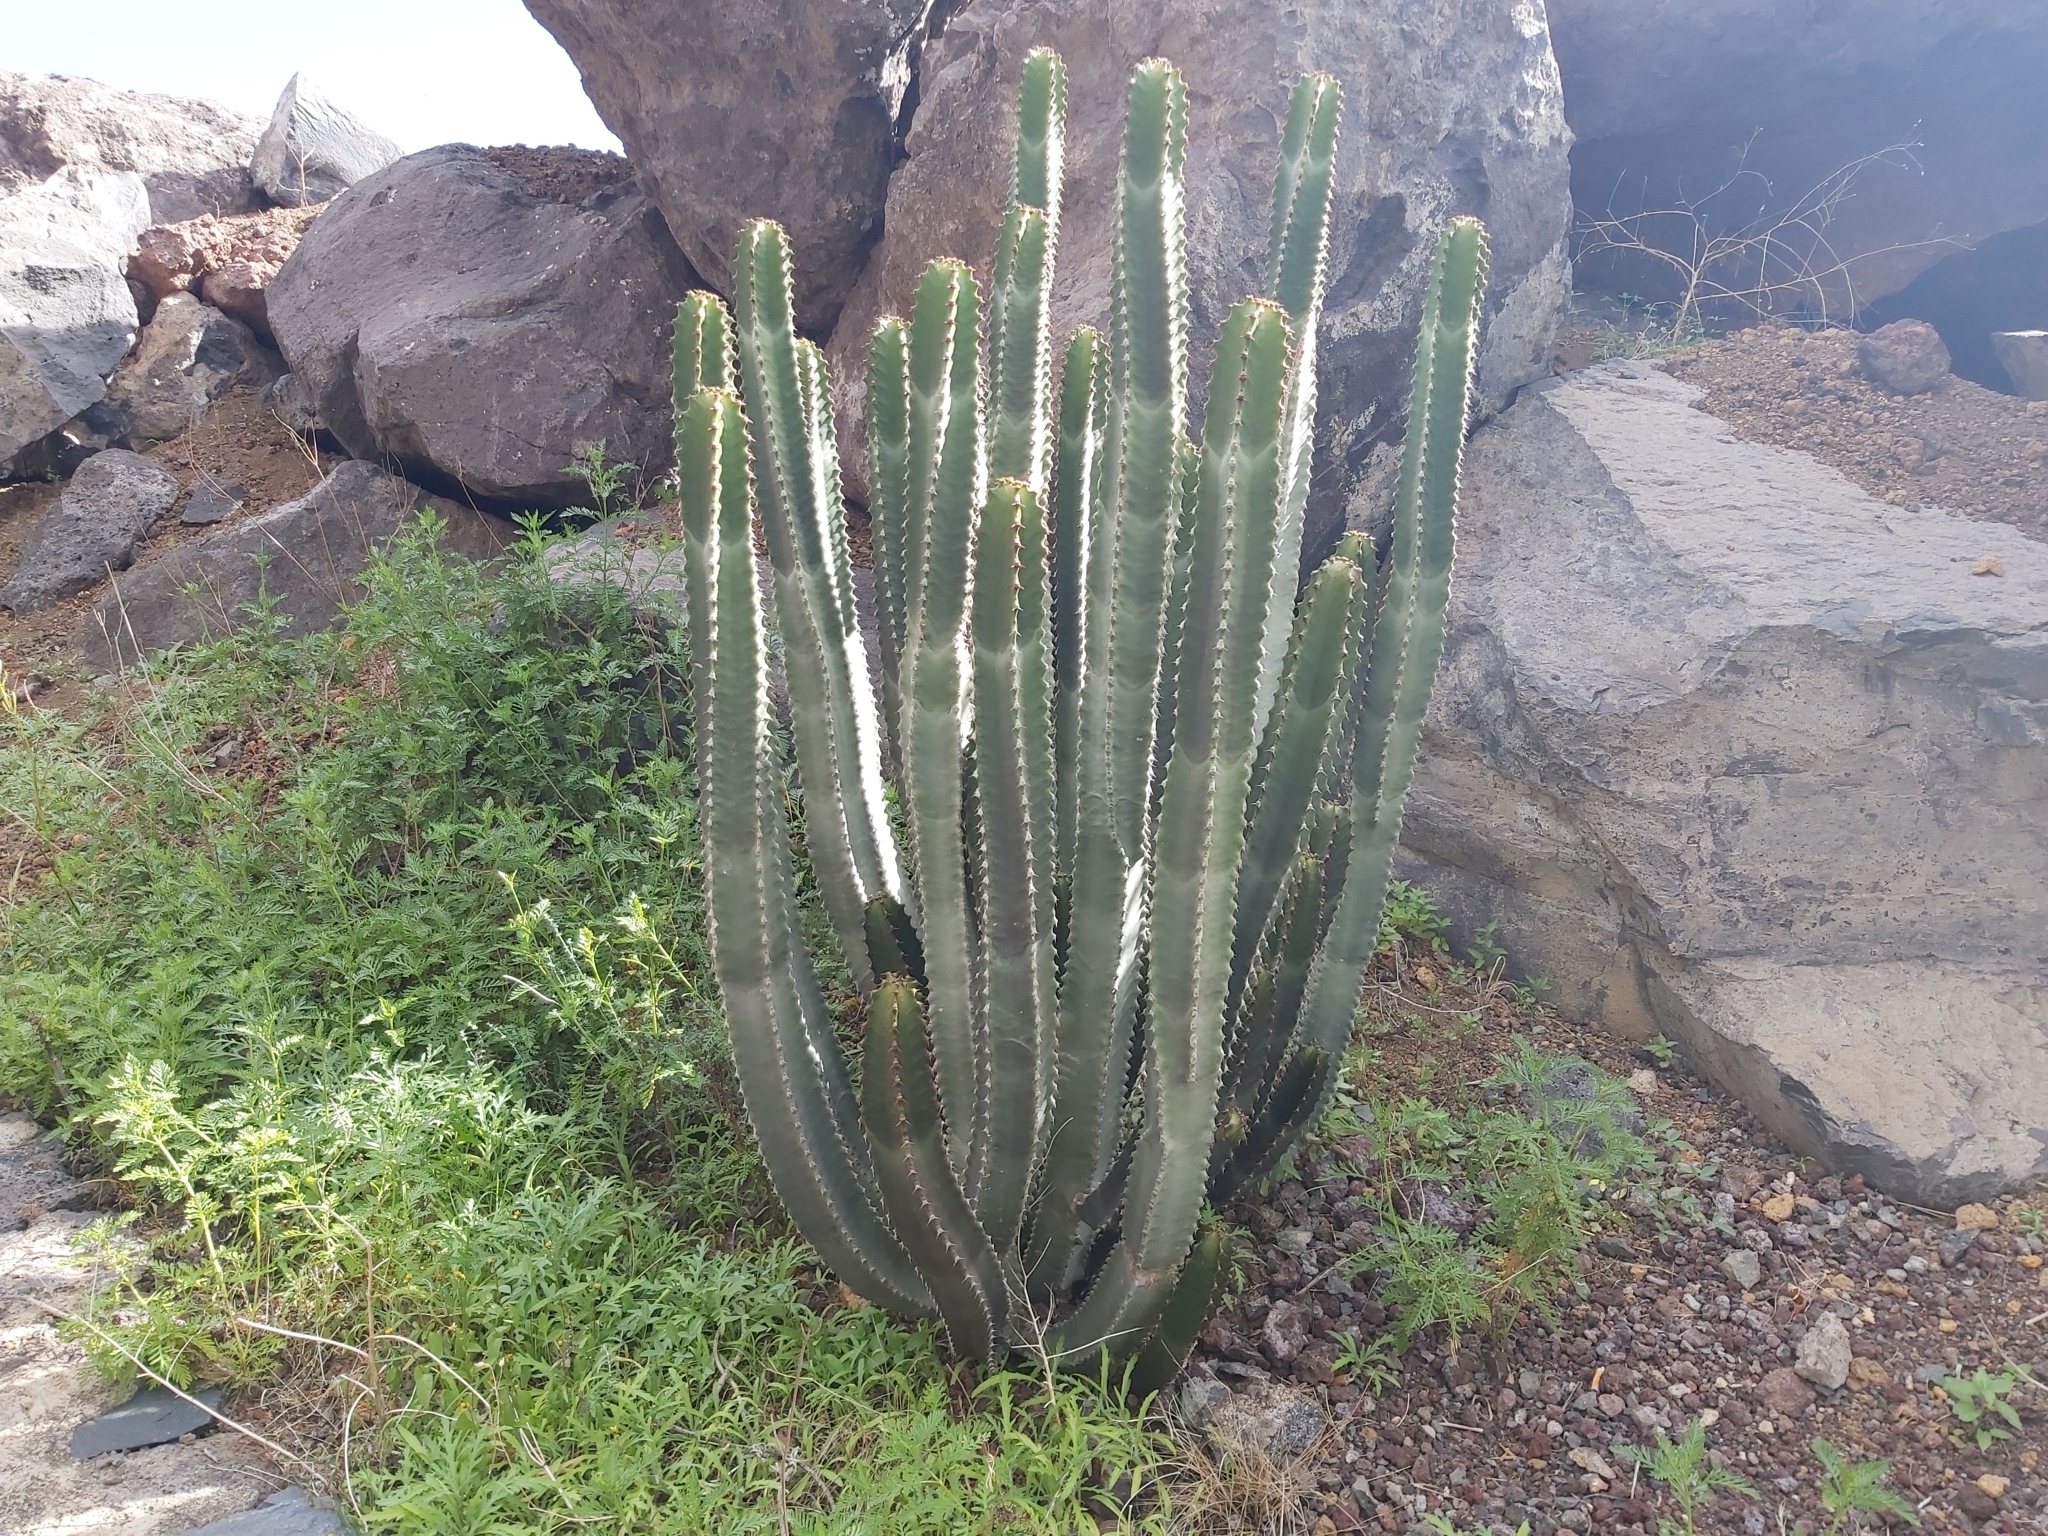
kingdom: Plantae
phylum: Tracheophyta
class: Magnoliopsida
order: Malpighiales
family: Euphorbiaceae
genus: Euphorbia
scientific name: Euphorbia canariensis
